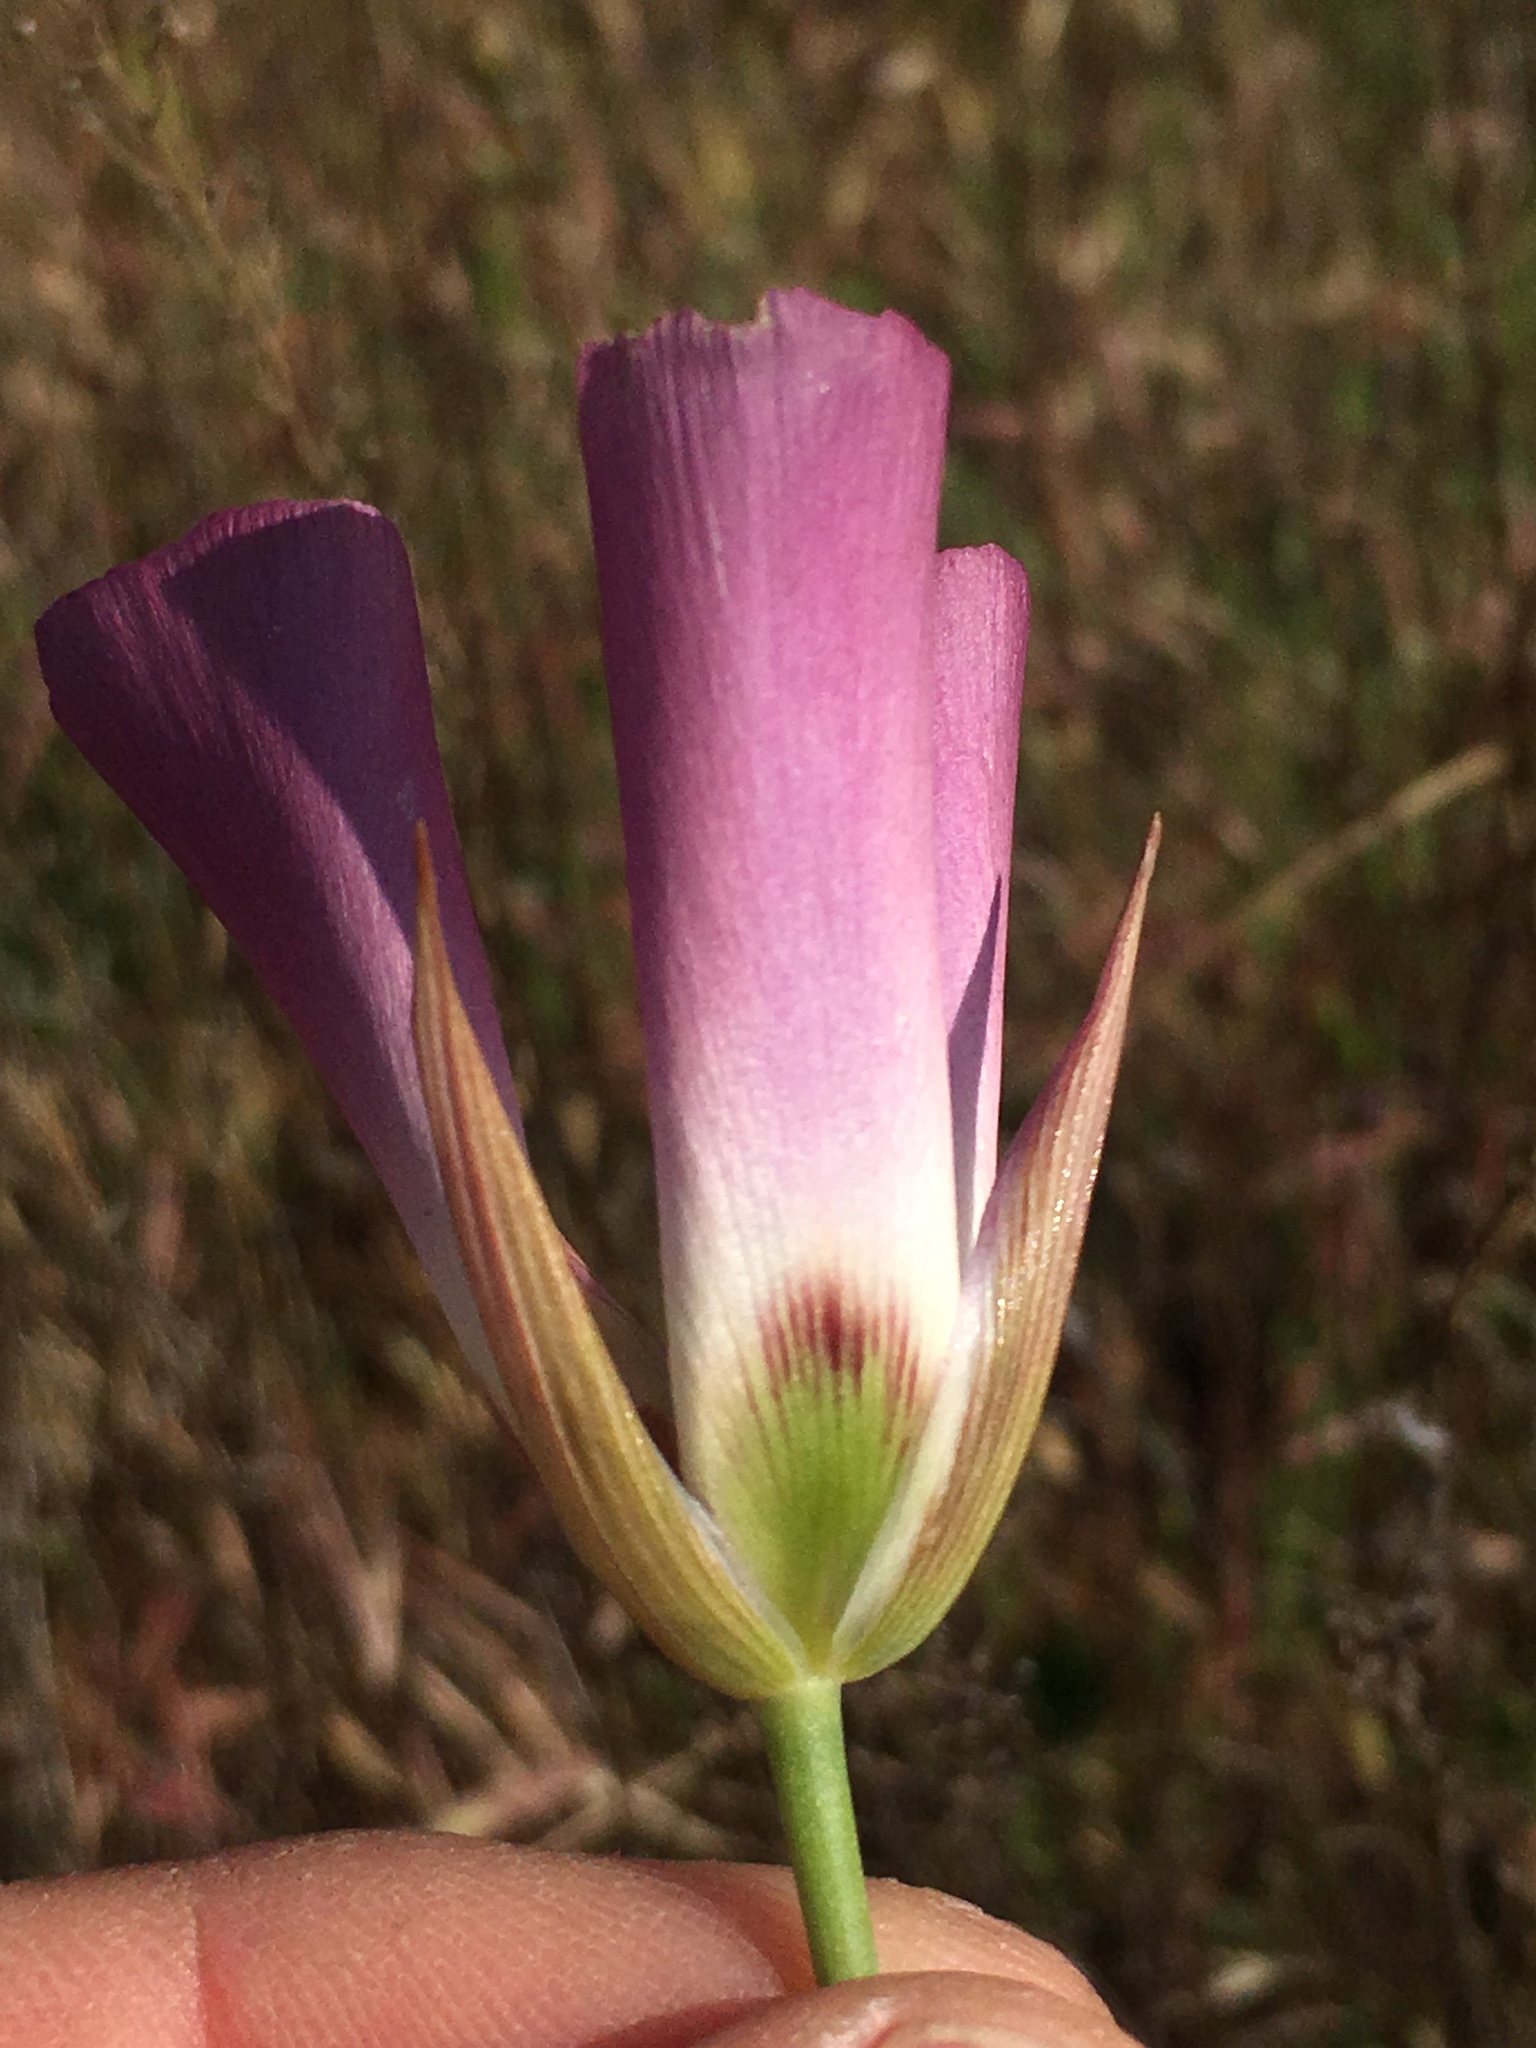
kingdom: Plantae
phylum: Tracheophyta
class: Liliopsida
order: Liliales
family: Liliaceae
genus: Calochortus
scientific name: Calochortus catalinae
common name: Catalina mariposa-lily
